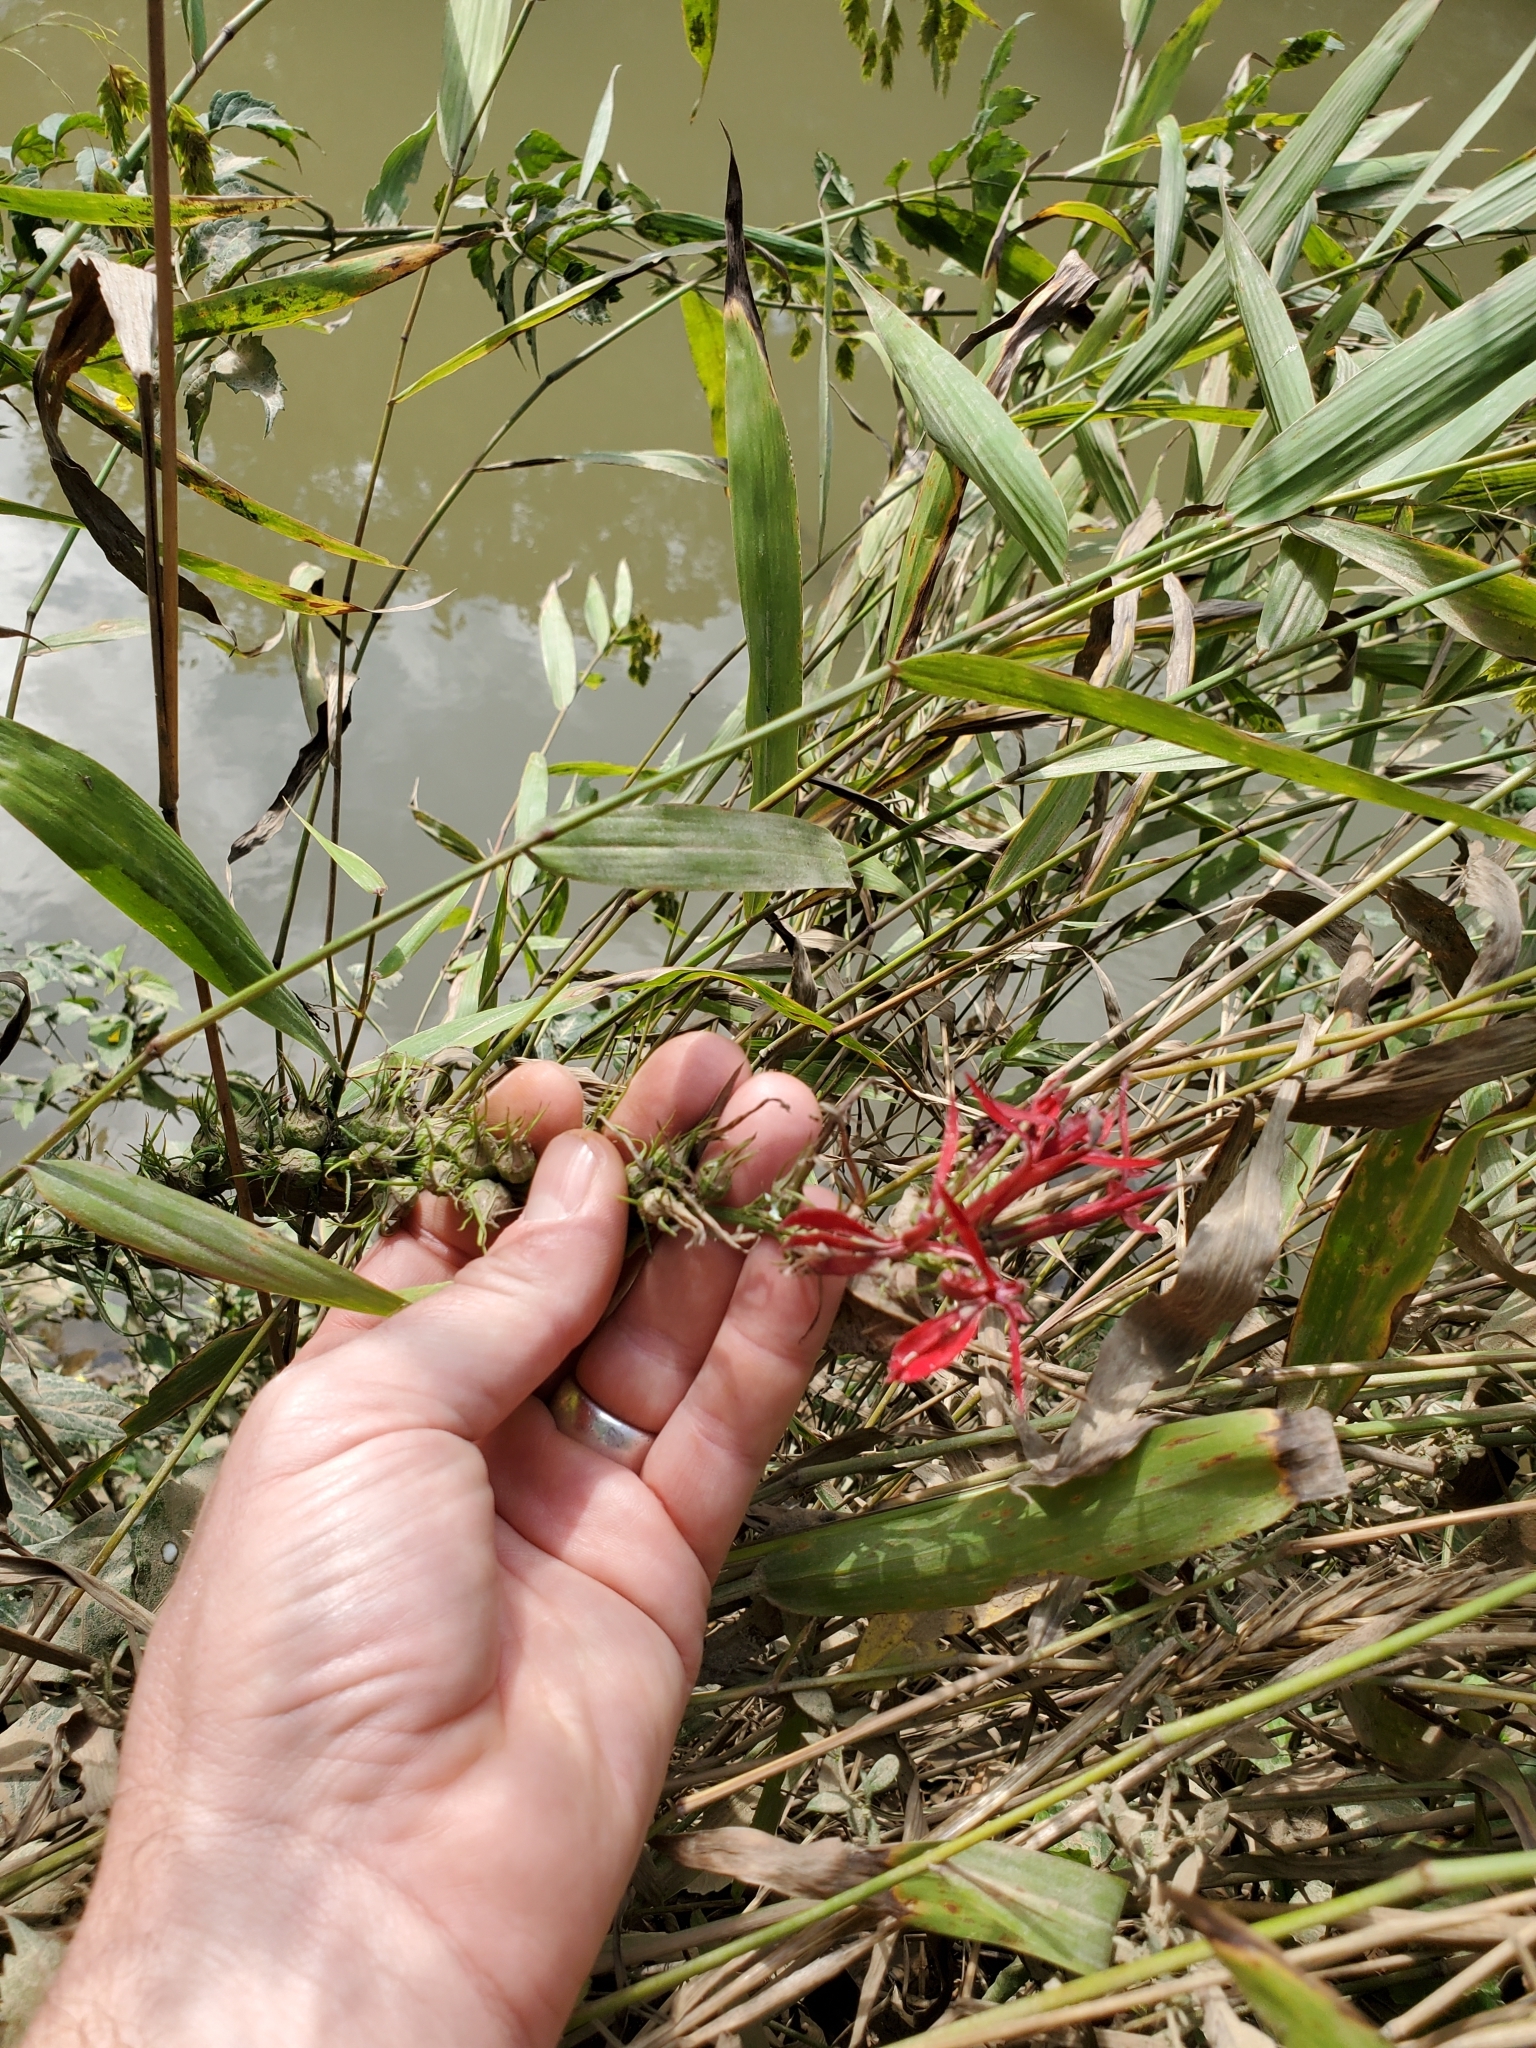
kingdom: Plantae
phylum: Tracheophyta
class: Magnoliopsida
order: Asterales
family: Campanulaceae
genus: Lobelia
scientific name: Lobelia cardinalis
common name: Cardinal flower
